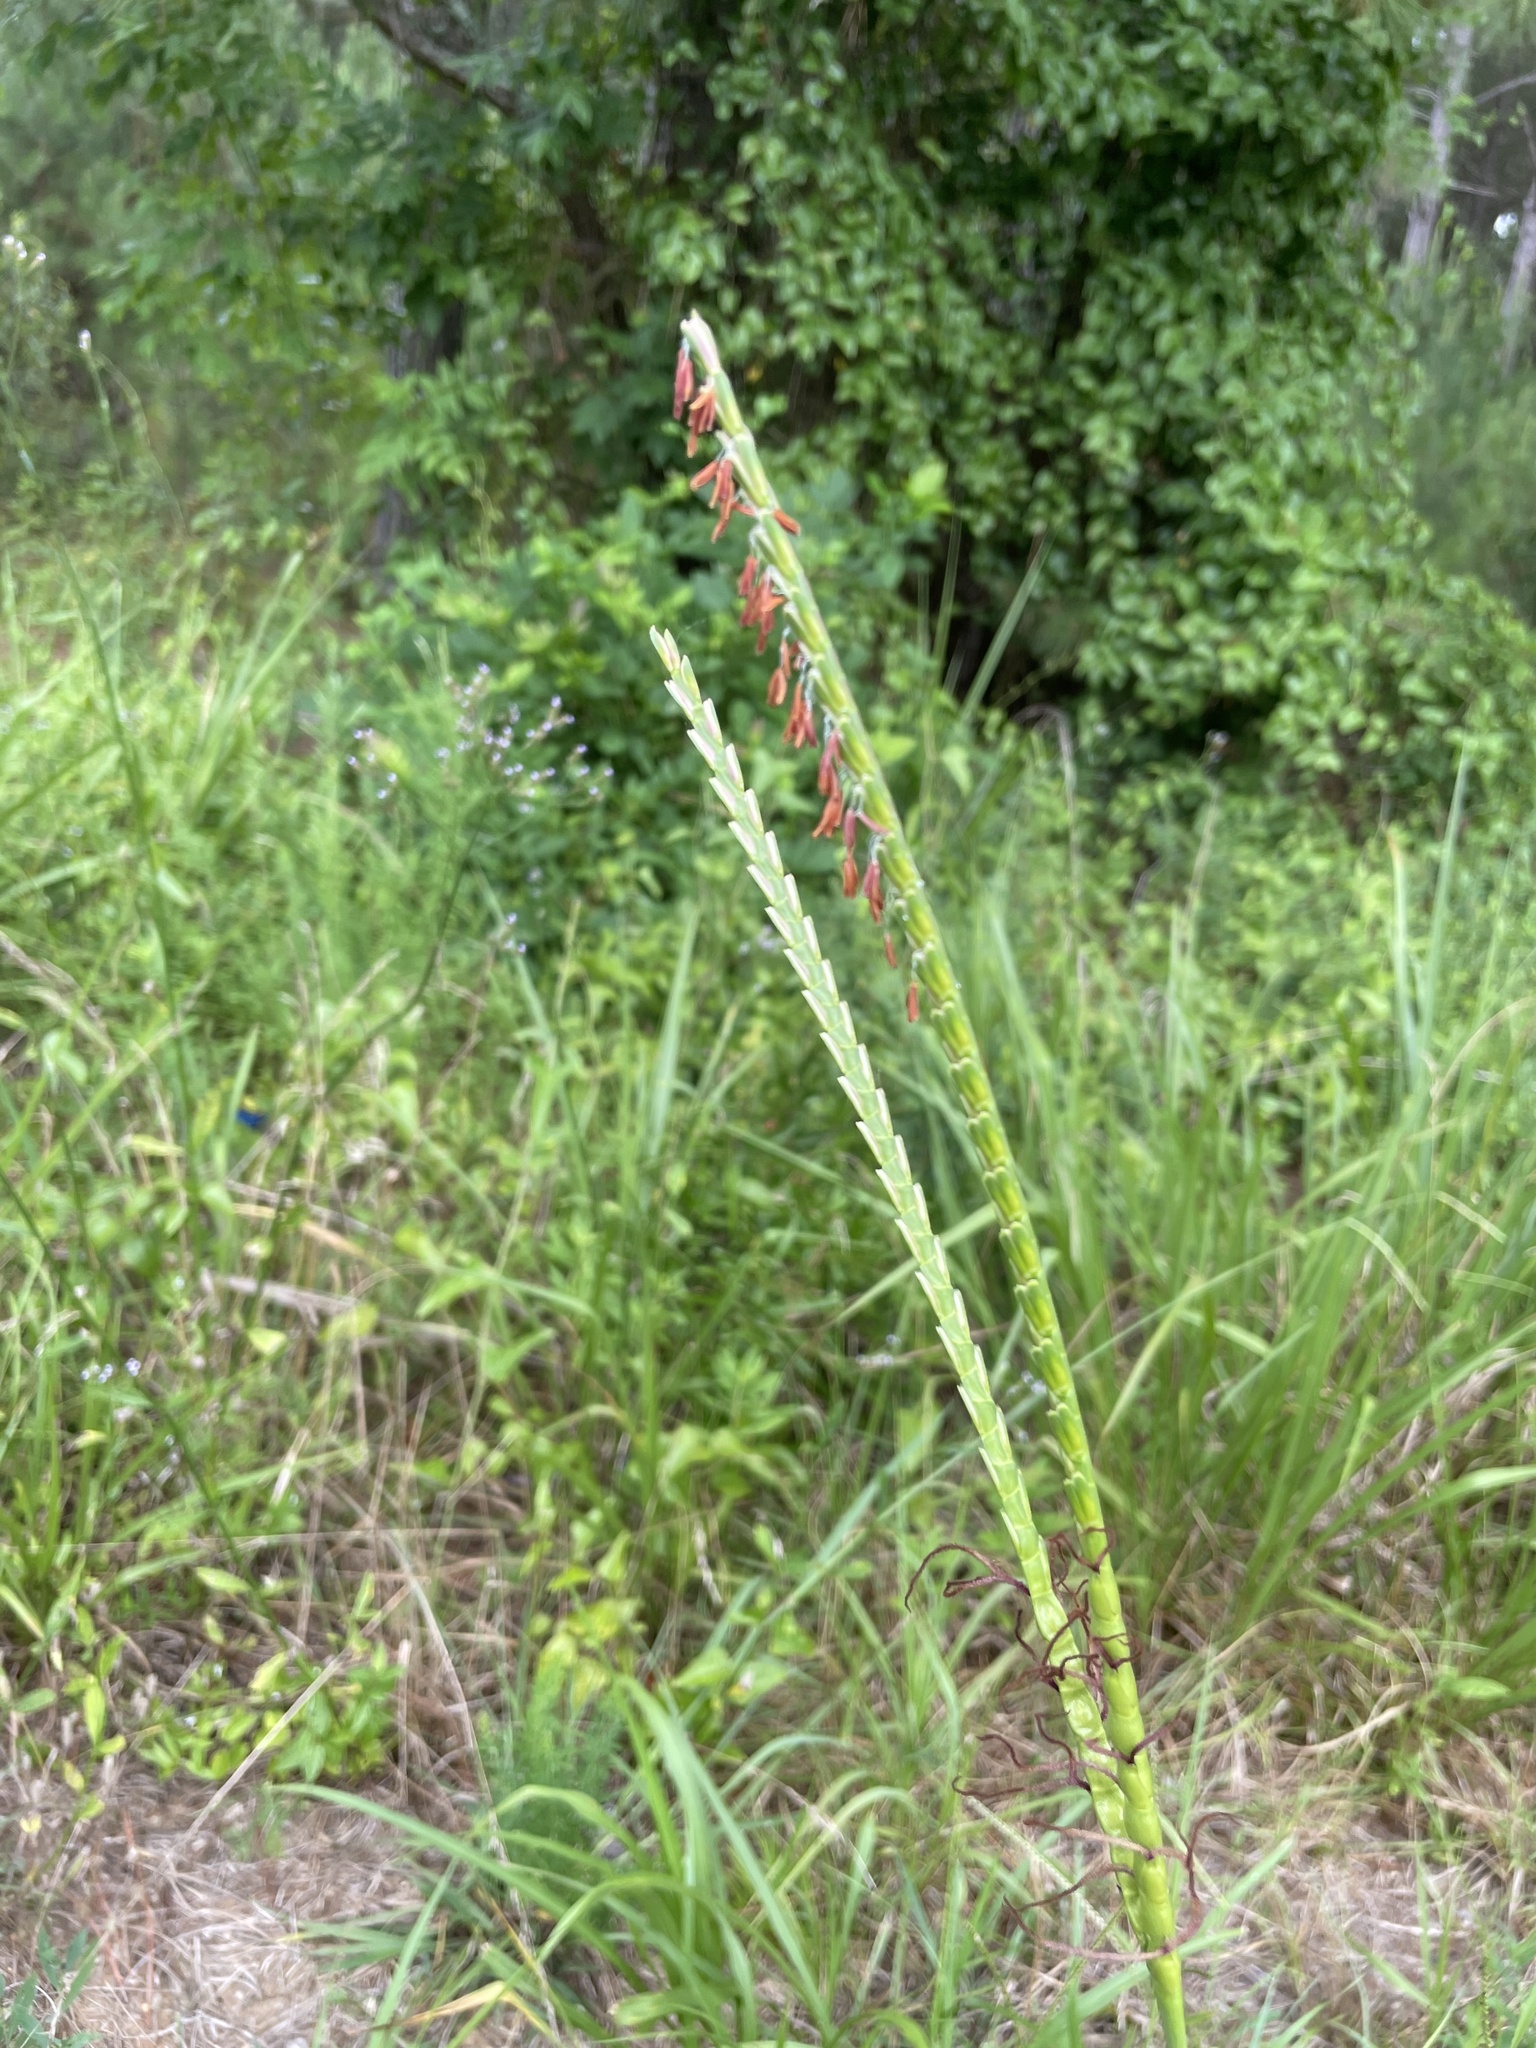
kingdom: Plantae
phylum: Tracheophyta
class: Liliopsida
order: Poales
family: Poaceae
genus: Tripsacum
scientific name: Tripsacum dactyloides
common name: Buffalo-grass
